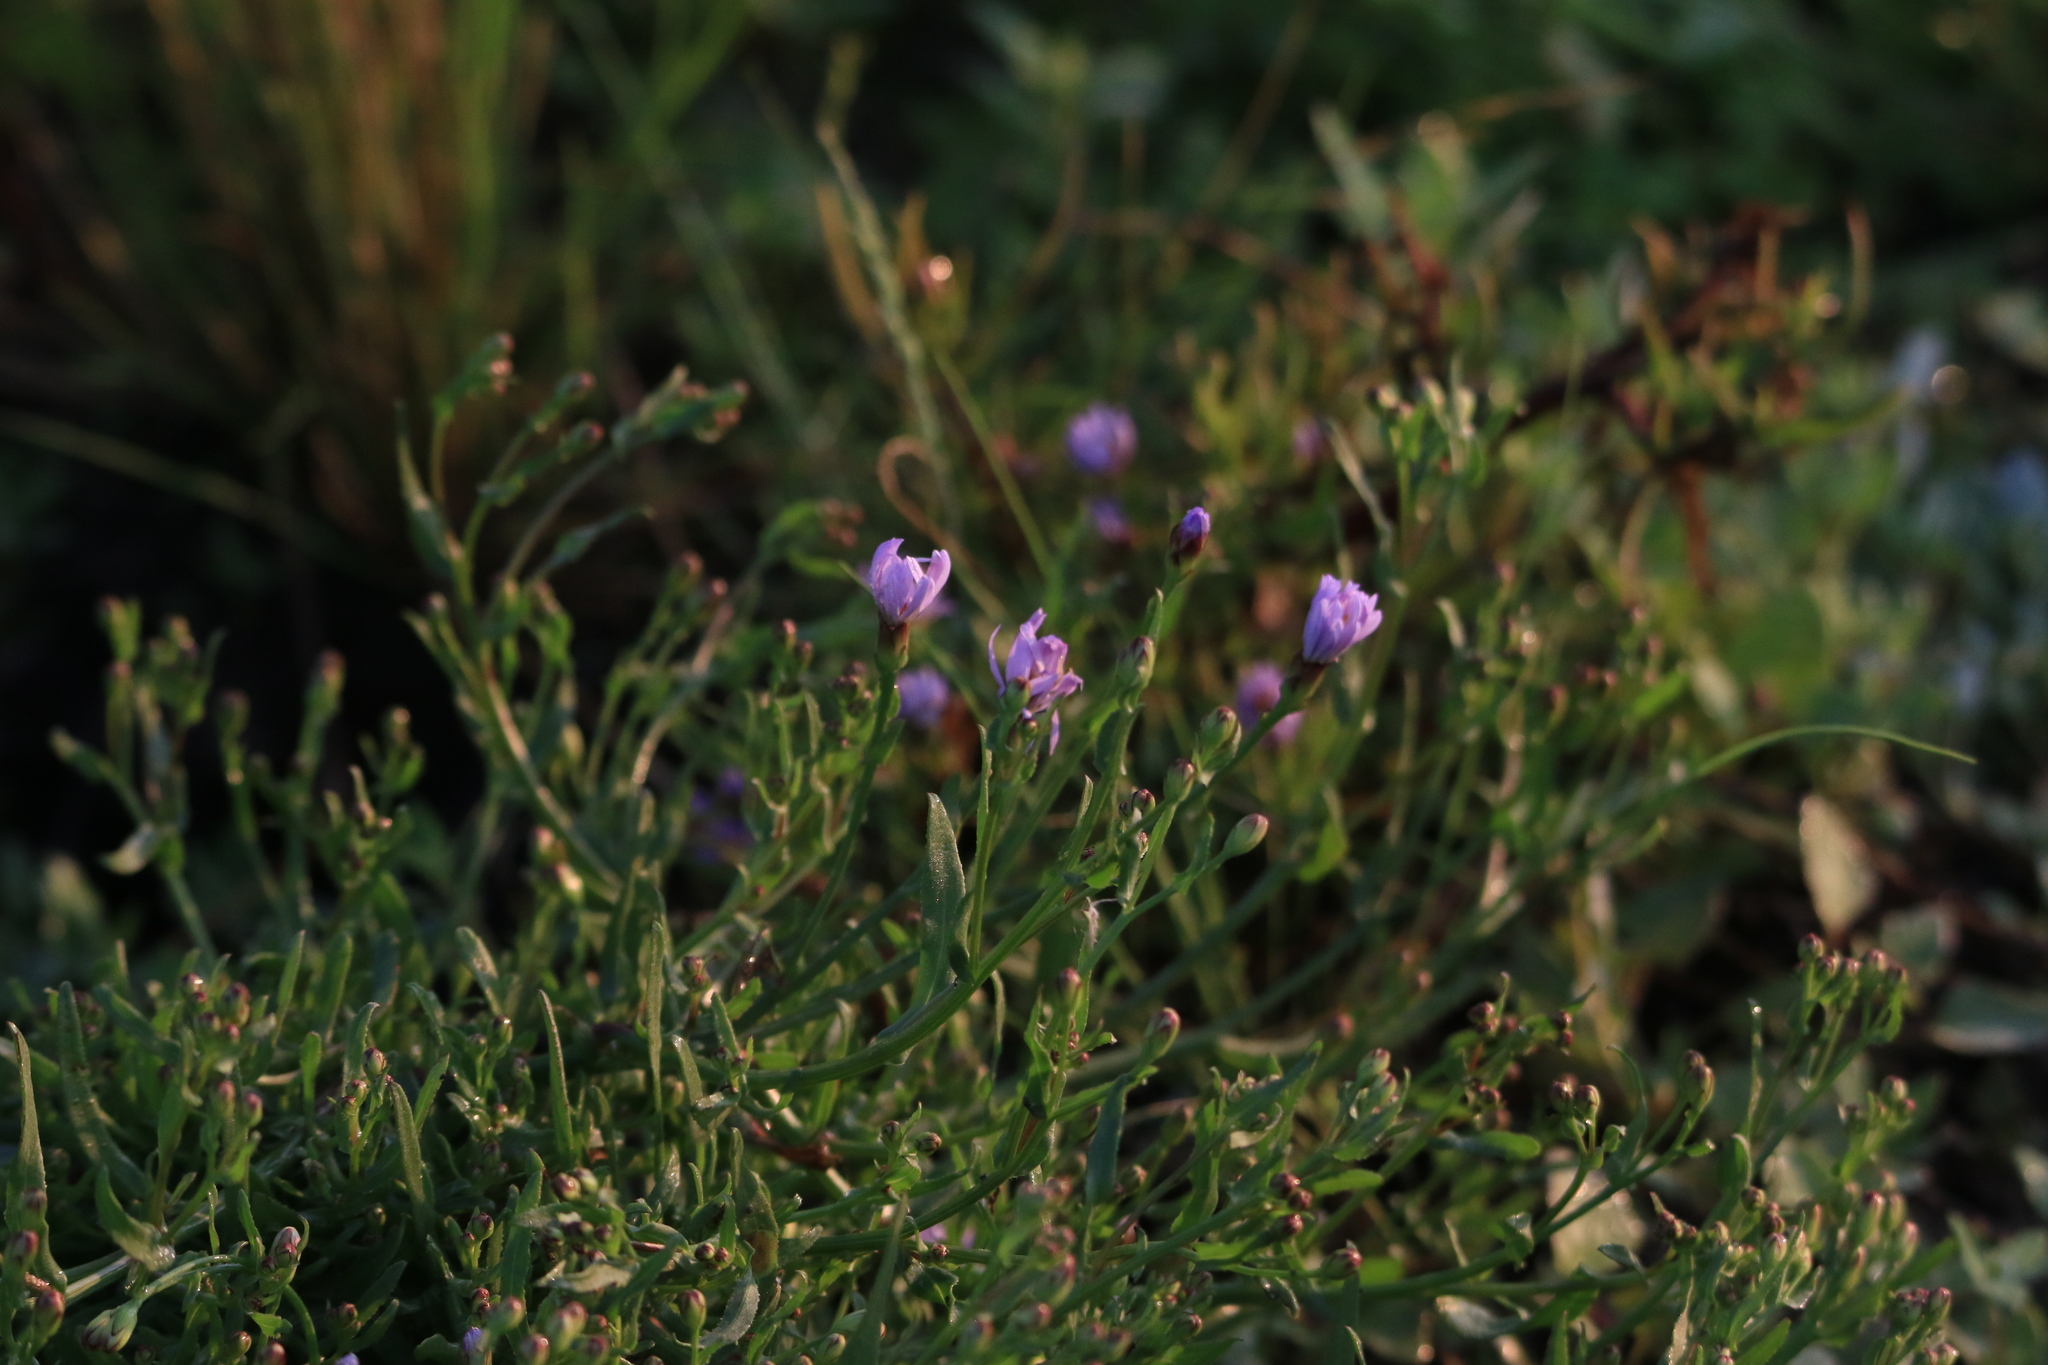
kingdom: Plantae
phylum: Tracheophyta
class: Magnoliopsida
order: Asterales
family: Asteraceae
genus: Tripolium
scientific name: Tripolium pannonicum
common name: Sea aster
